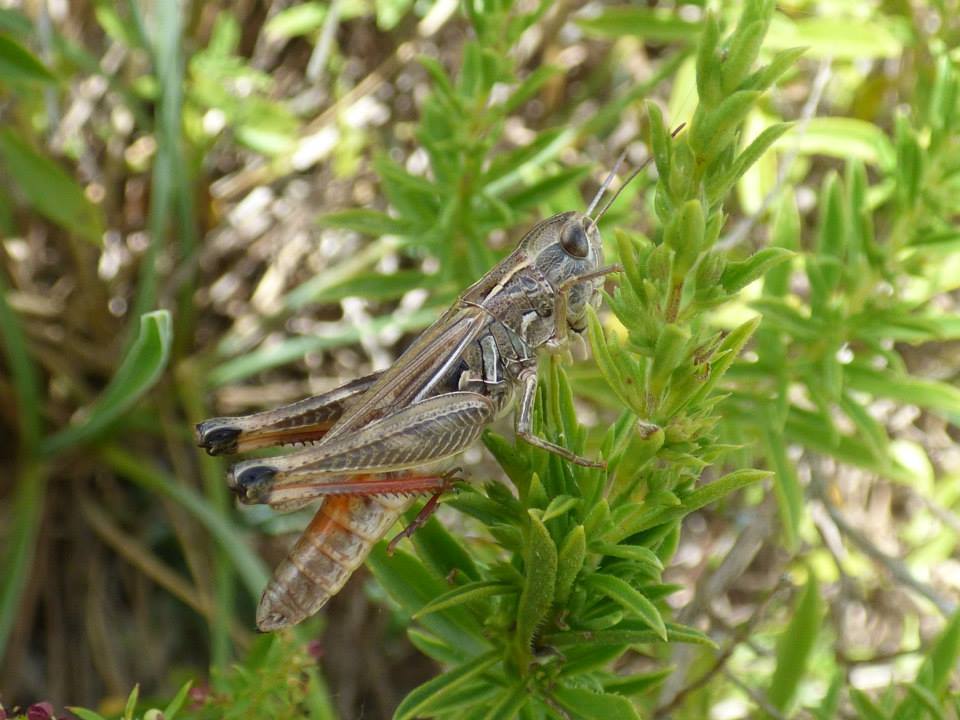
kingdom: Animalia
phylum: Arthropoda
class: Insecta
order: Orthoptera
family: Acrididae
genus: Stenobothrus
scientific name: Stenobothrus fischeri
